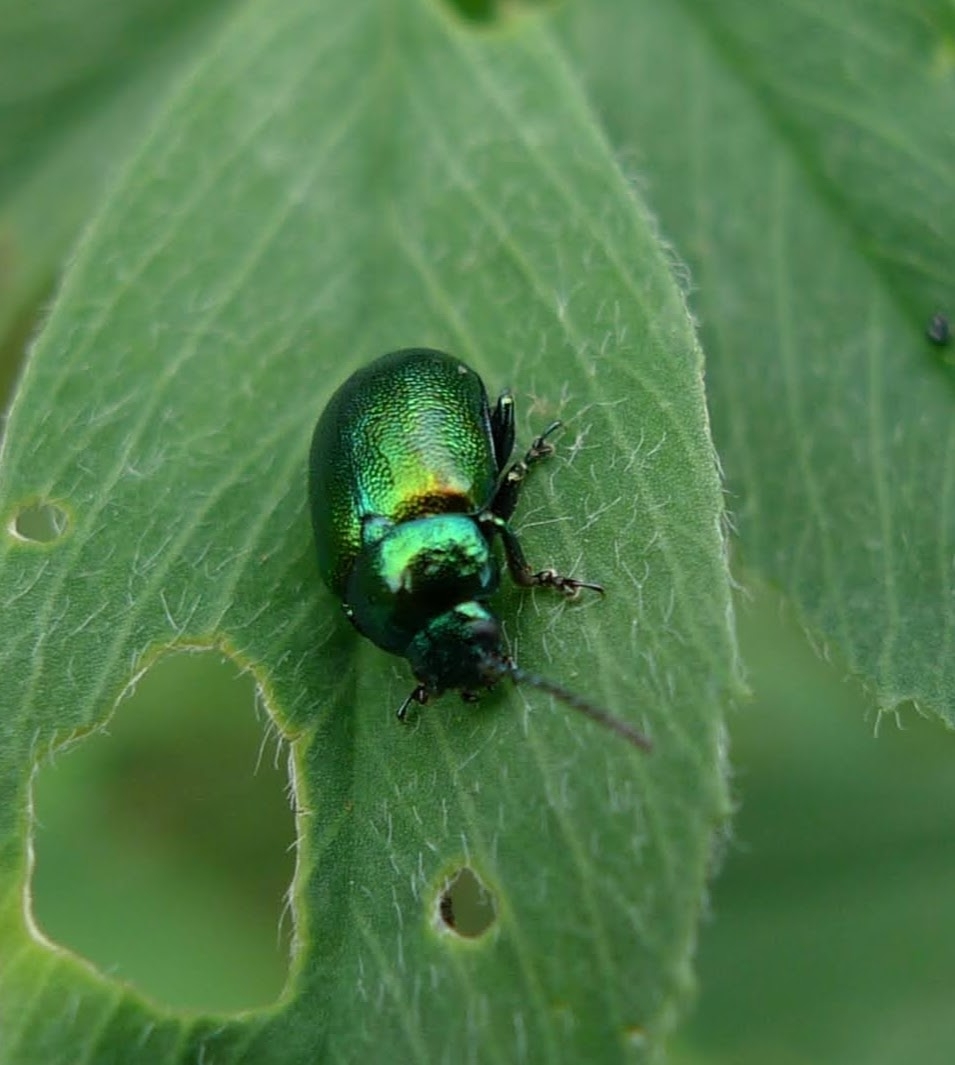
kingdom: Animalia
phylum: Arthropoda
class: Insecta
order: Coleoptera
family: Chrysomelidae
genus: Gastrophysa
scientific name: Gastrophysa viridula
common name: Green dock beetle
